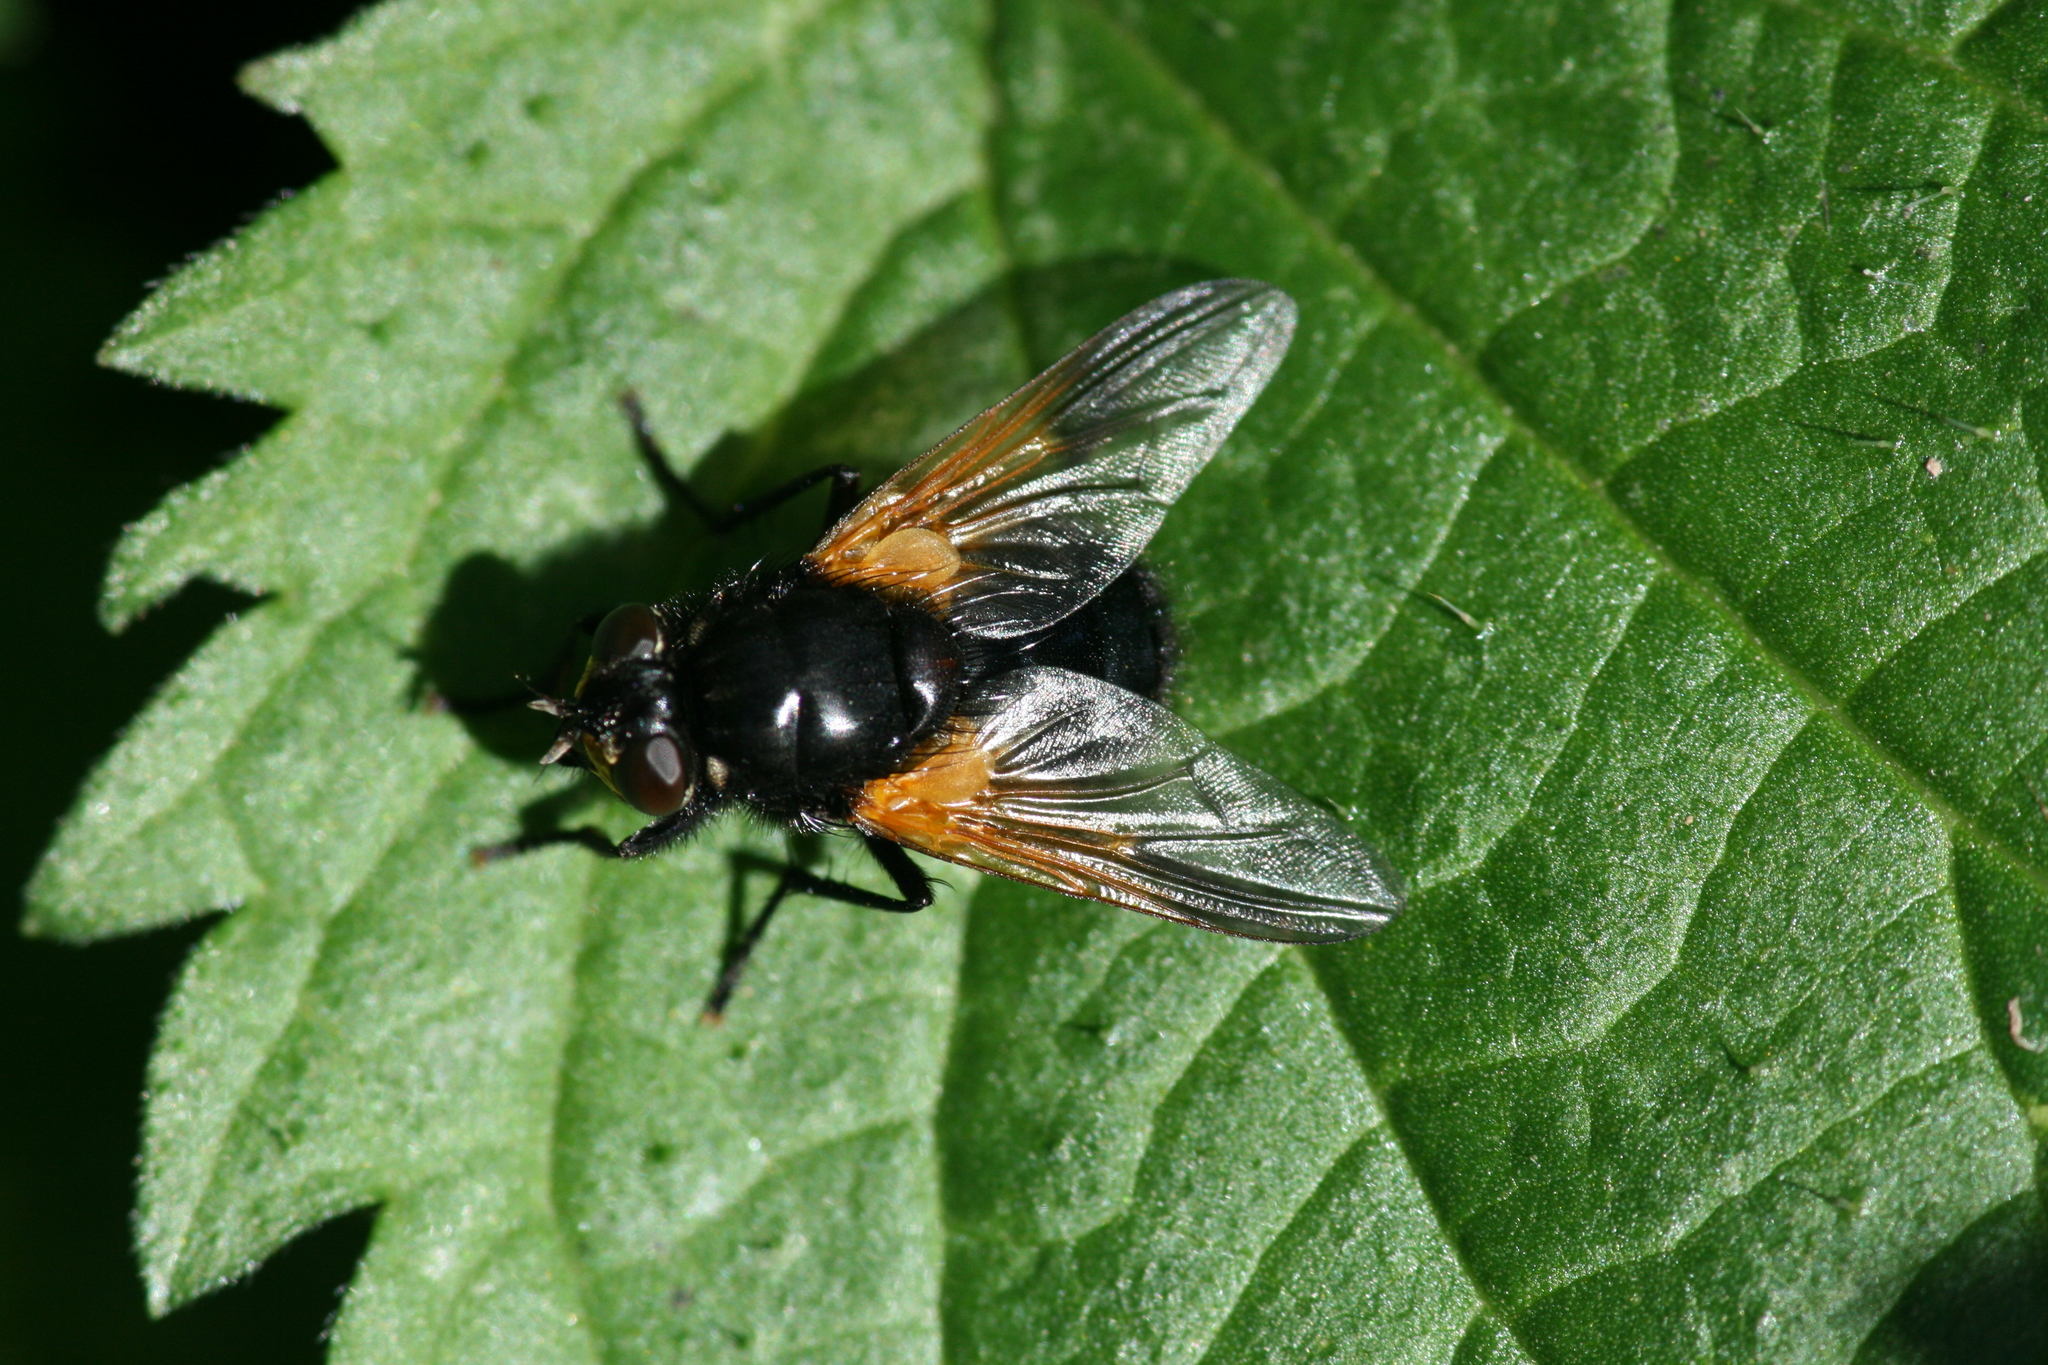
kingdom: Animalia
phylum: Arthropoda
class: Insecta
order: Diptera
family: Muscidae
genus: Mesembrina
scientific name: Mesembrina meridiana
